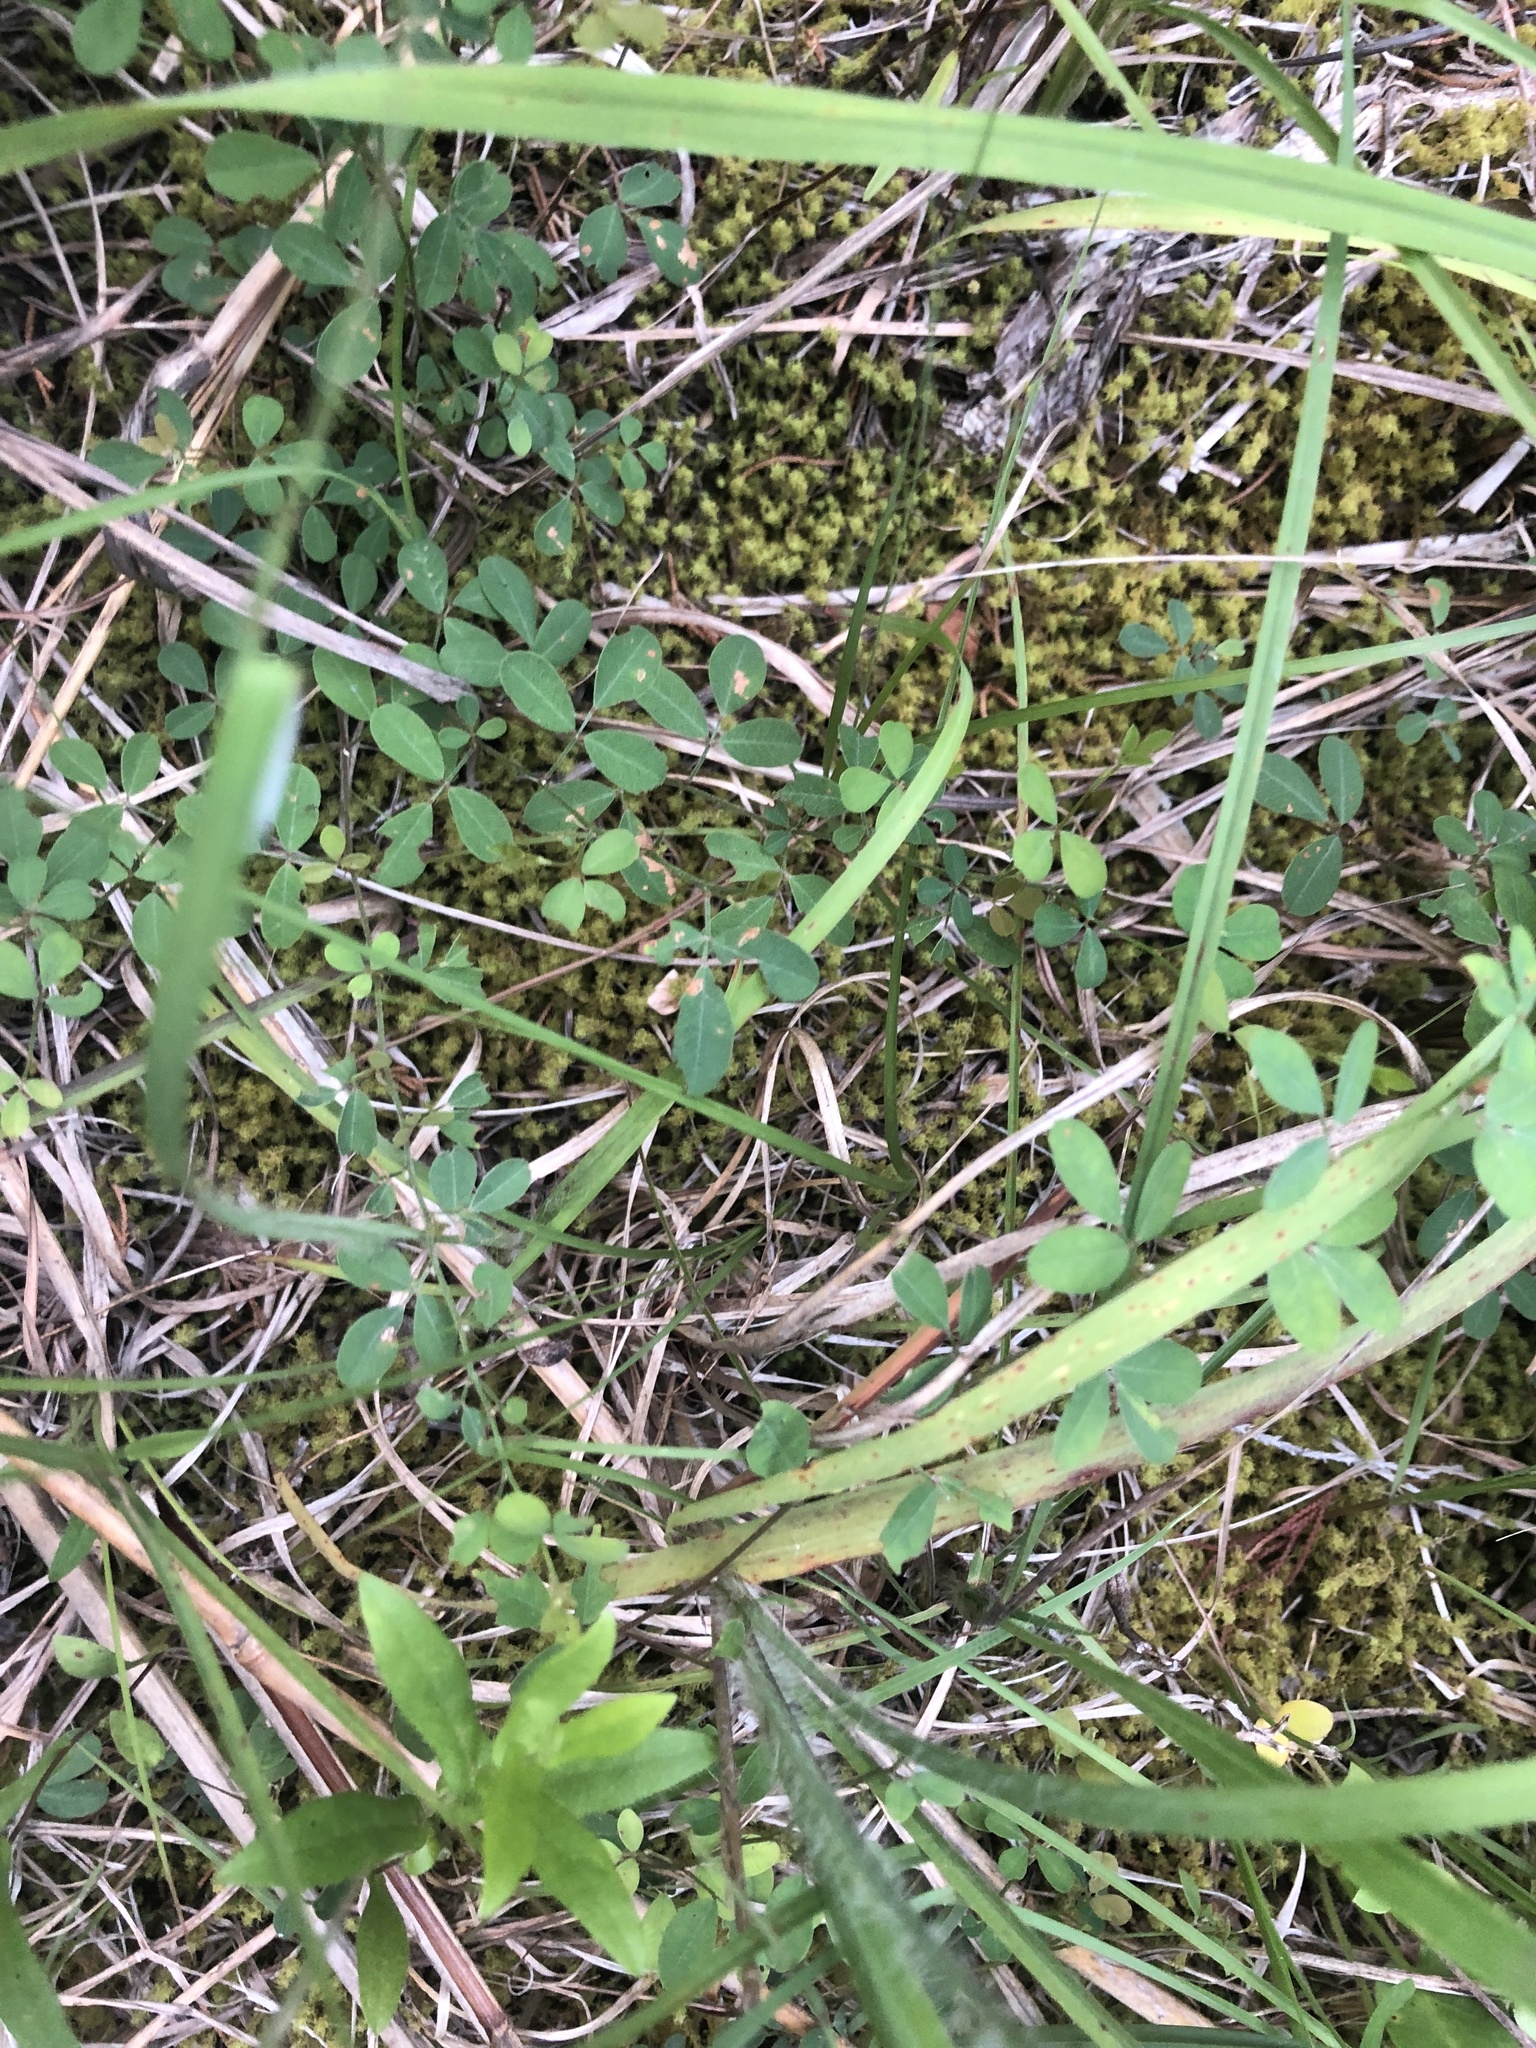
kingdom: Plantae
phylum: Tracheophyta
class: Magnoliopsida
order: Fabales
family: Fabaceae
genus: Lespedeza
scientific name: Lespedeza repens
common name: Creeping bush-clover
